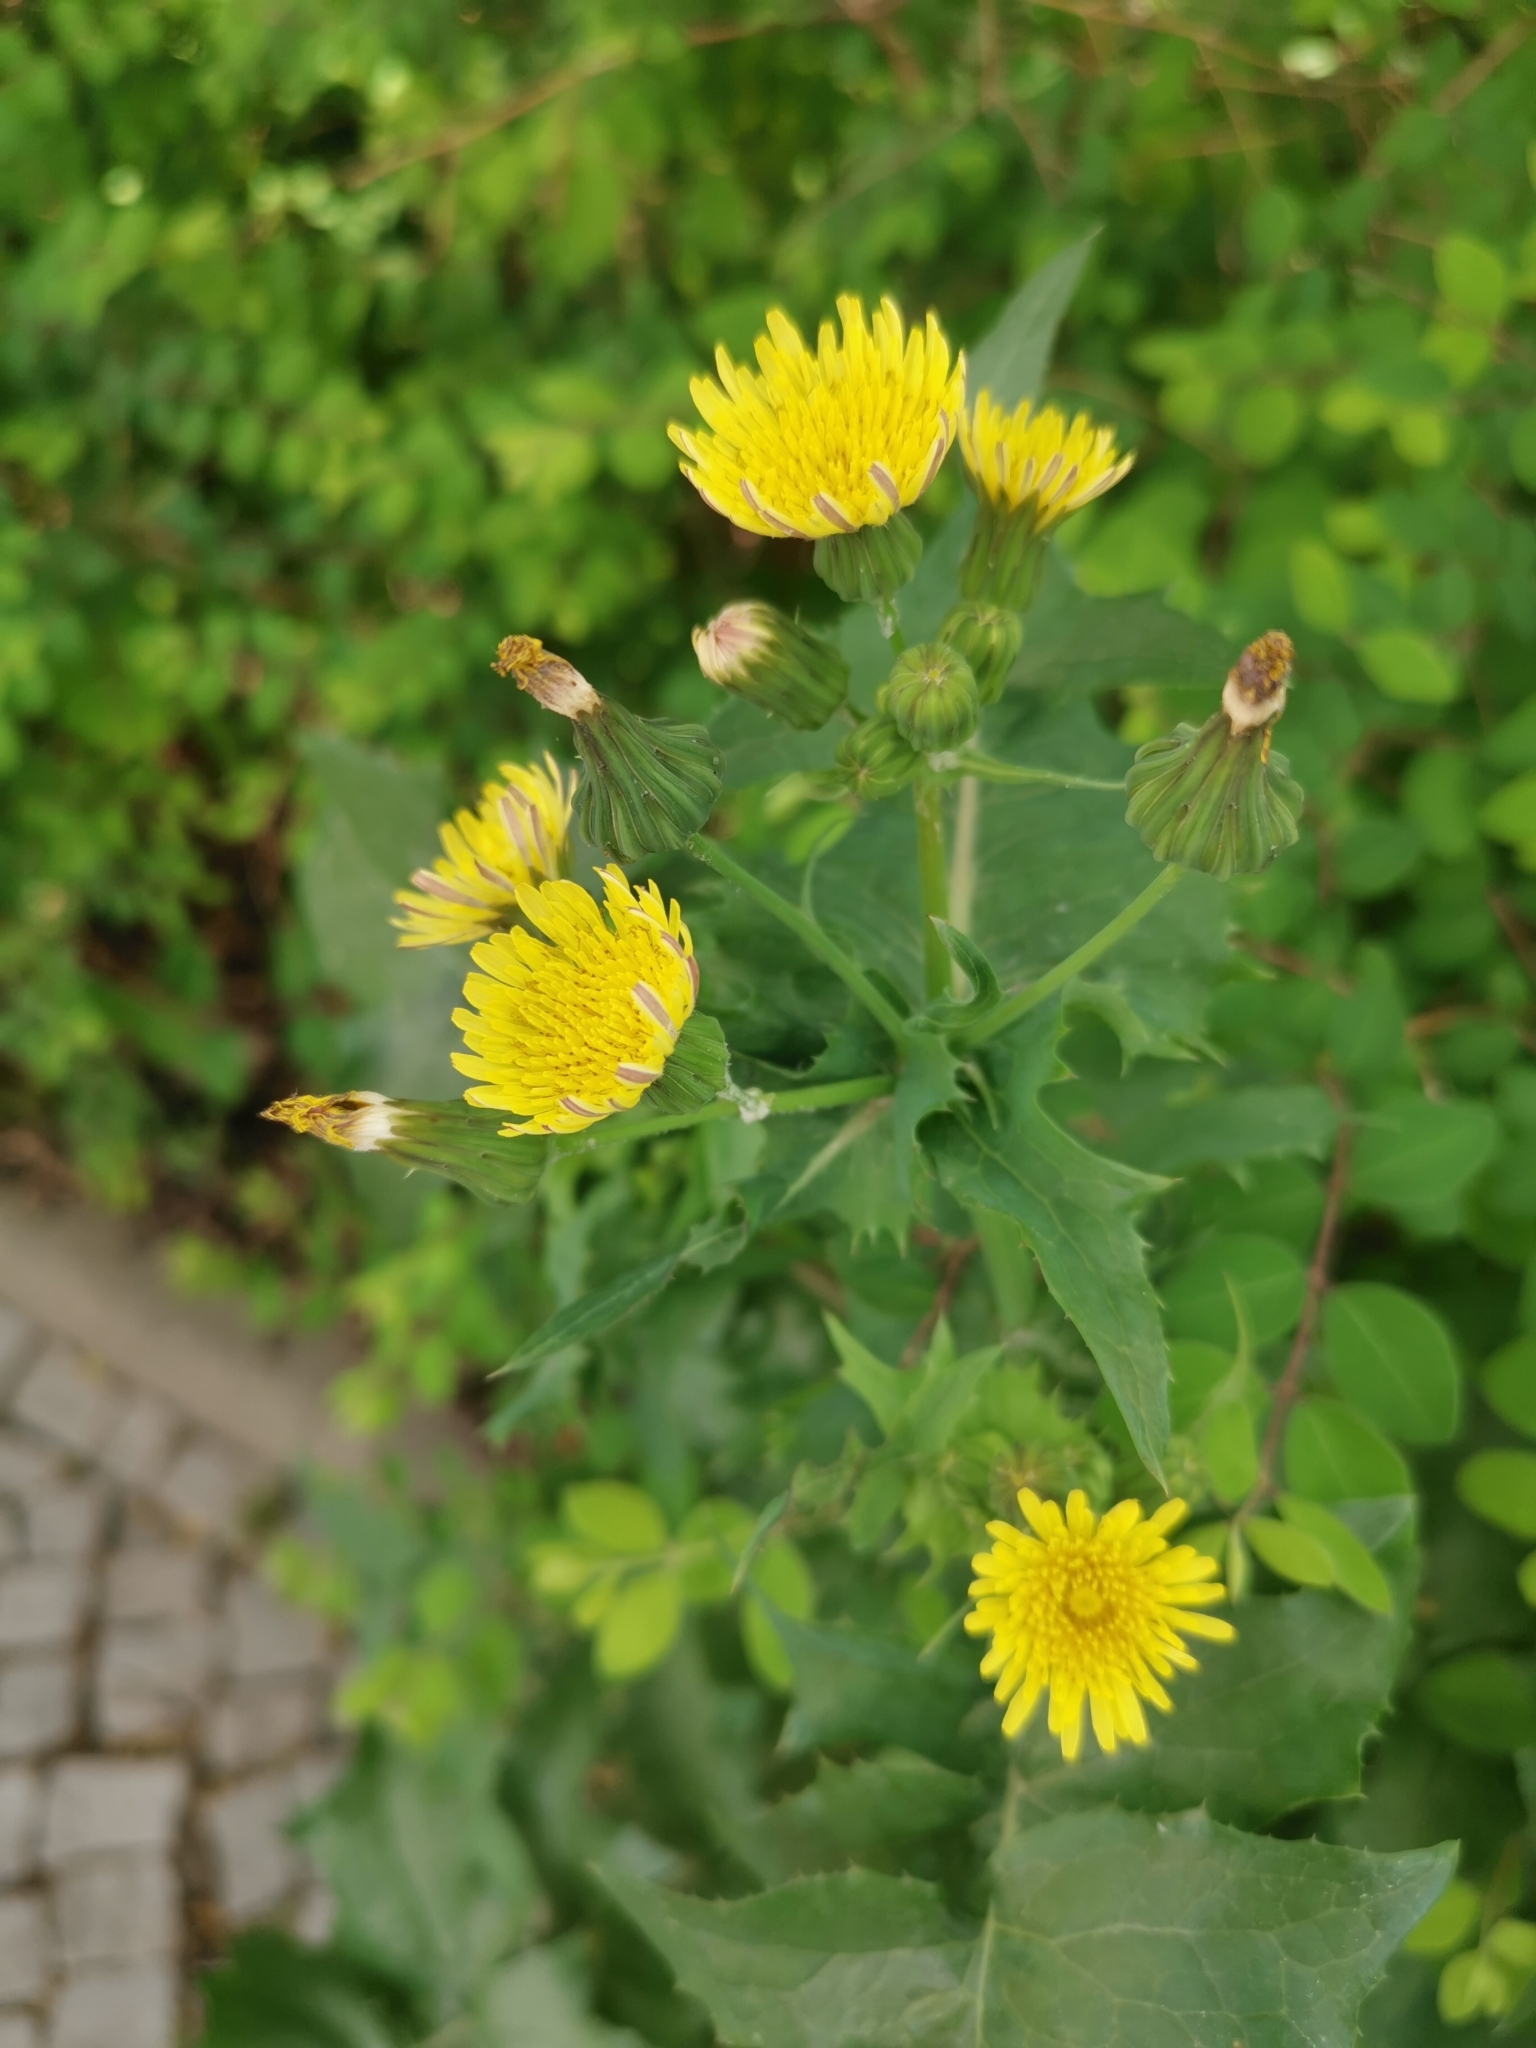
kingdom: Plantae
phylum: Tracheophyta
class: Magnoliopsida
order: Asterales
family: Asteraceae
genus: Sonchus
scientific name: Sonchus oleraceus
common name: Common sowthistle
